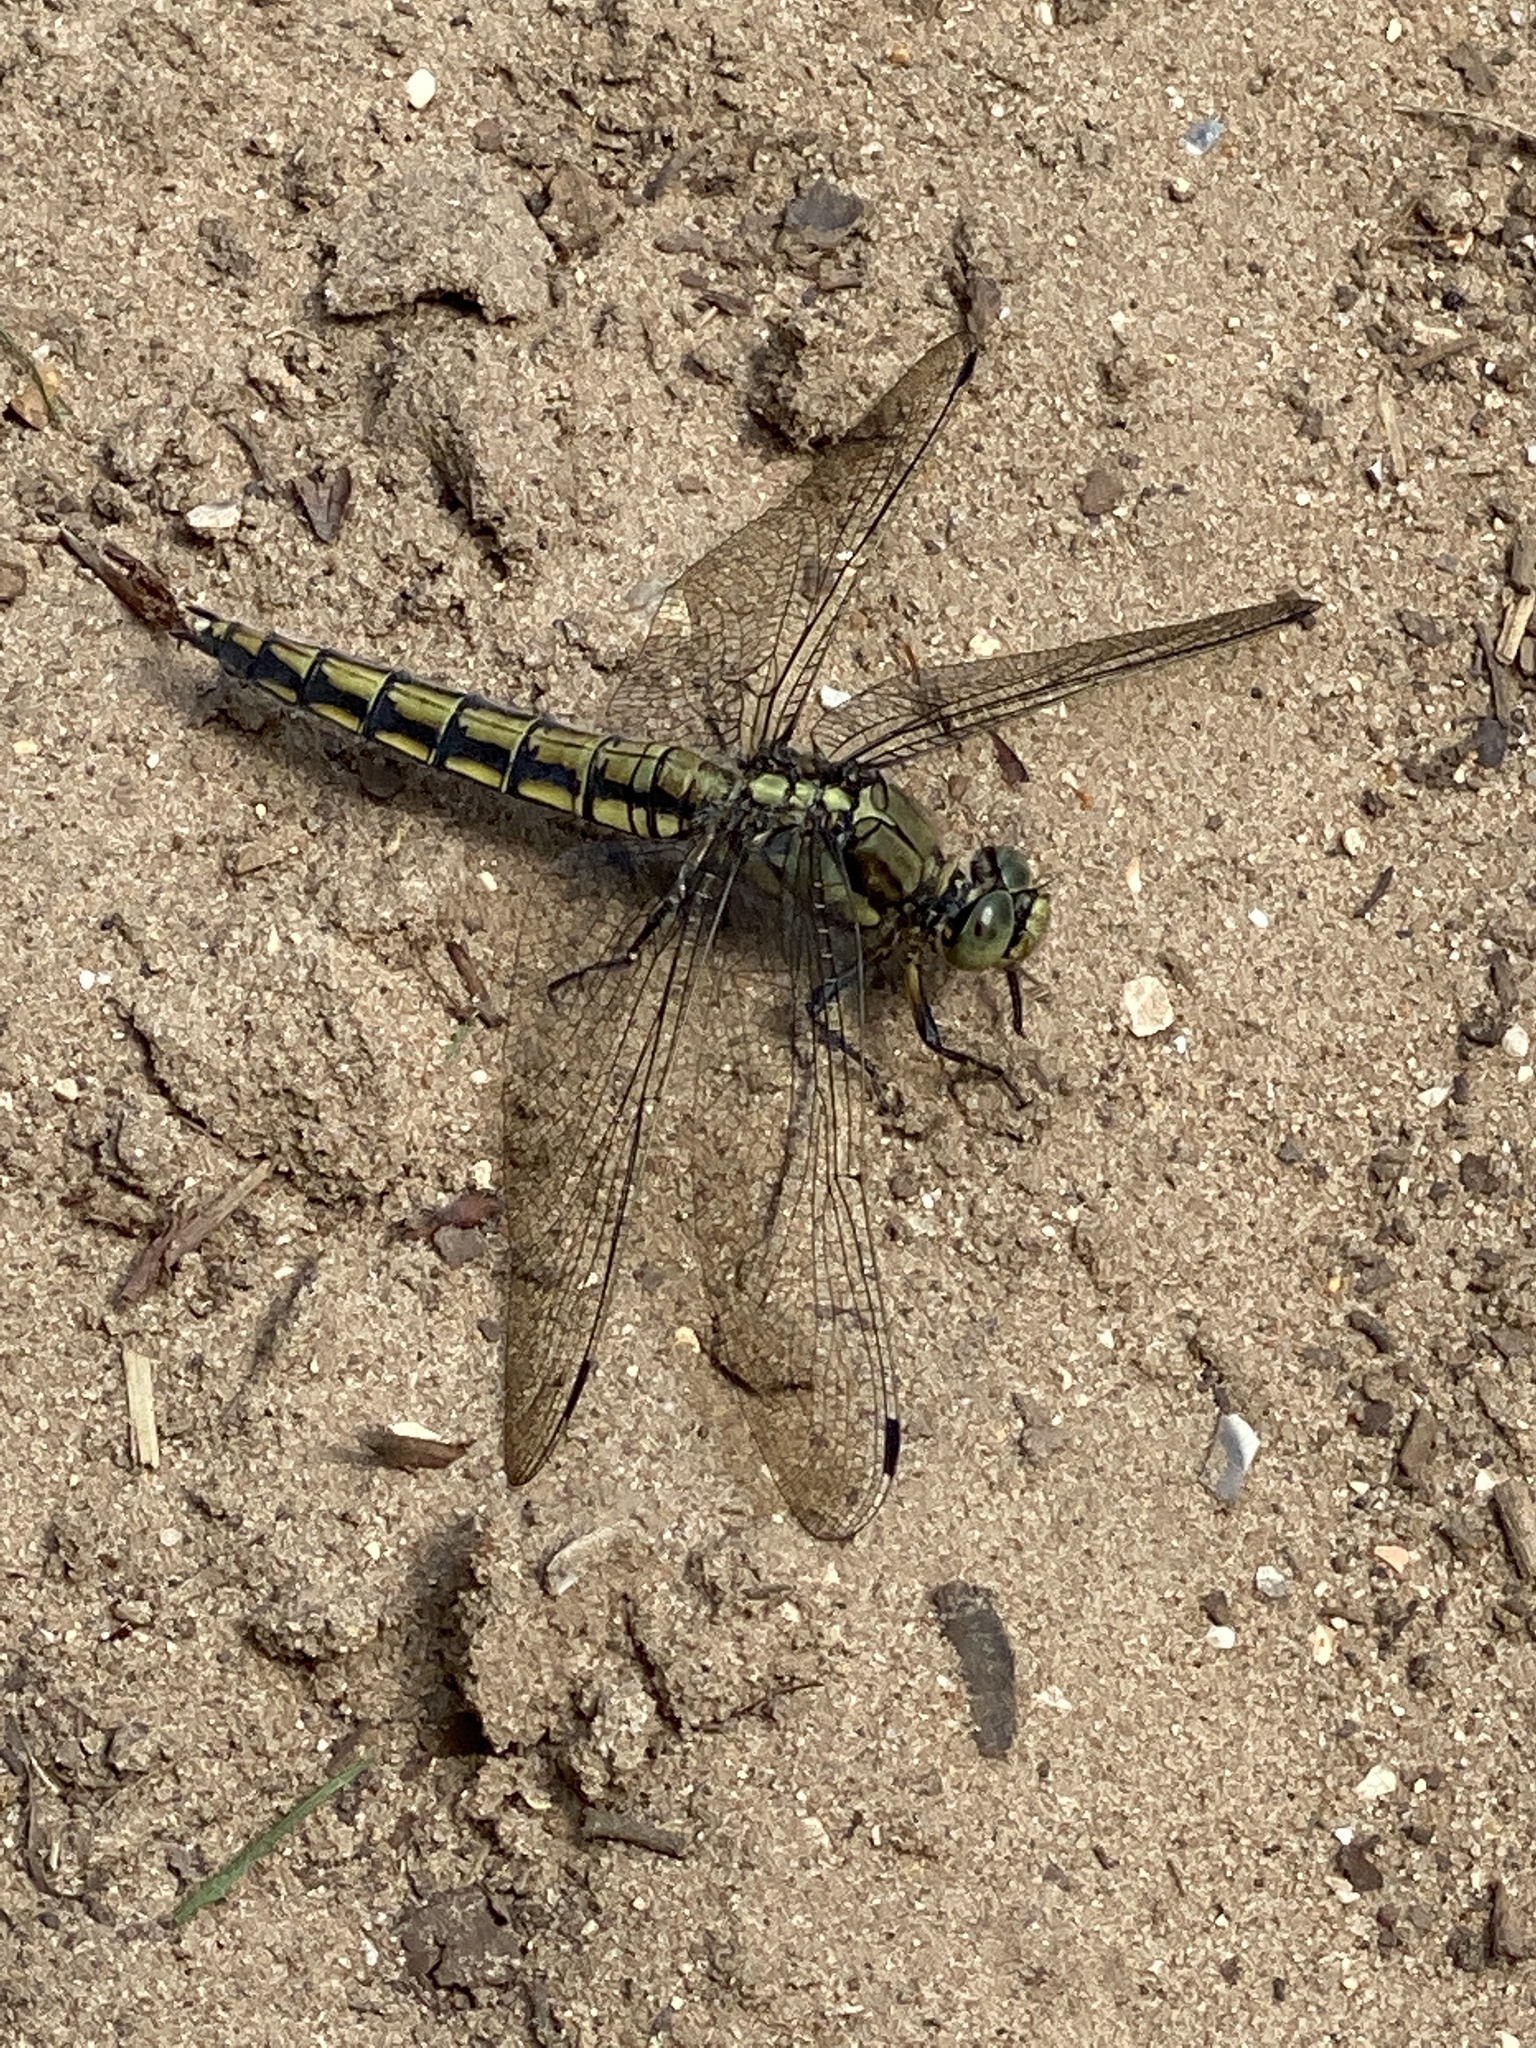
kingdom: Animalia
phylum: Arthropoda
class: Insecta
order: Odonata
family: Libellulidae
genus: Orthetrum
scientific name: Orthetrum cancellatum
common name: Black-tailed skimmer
